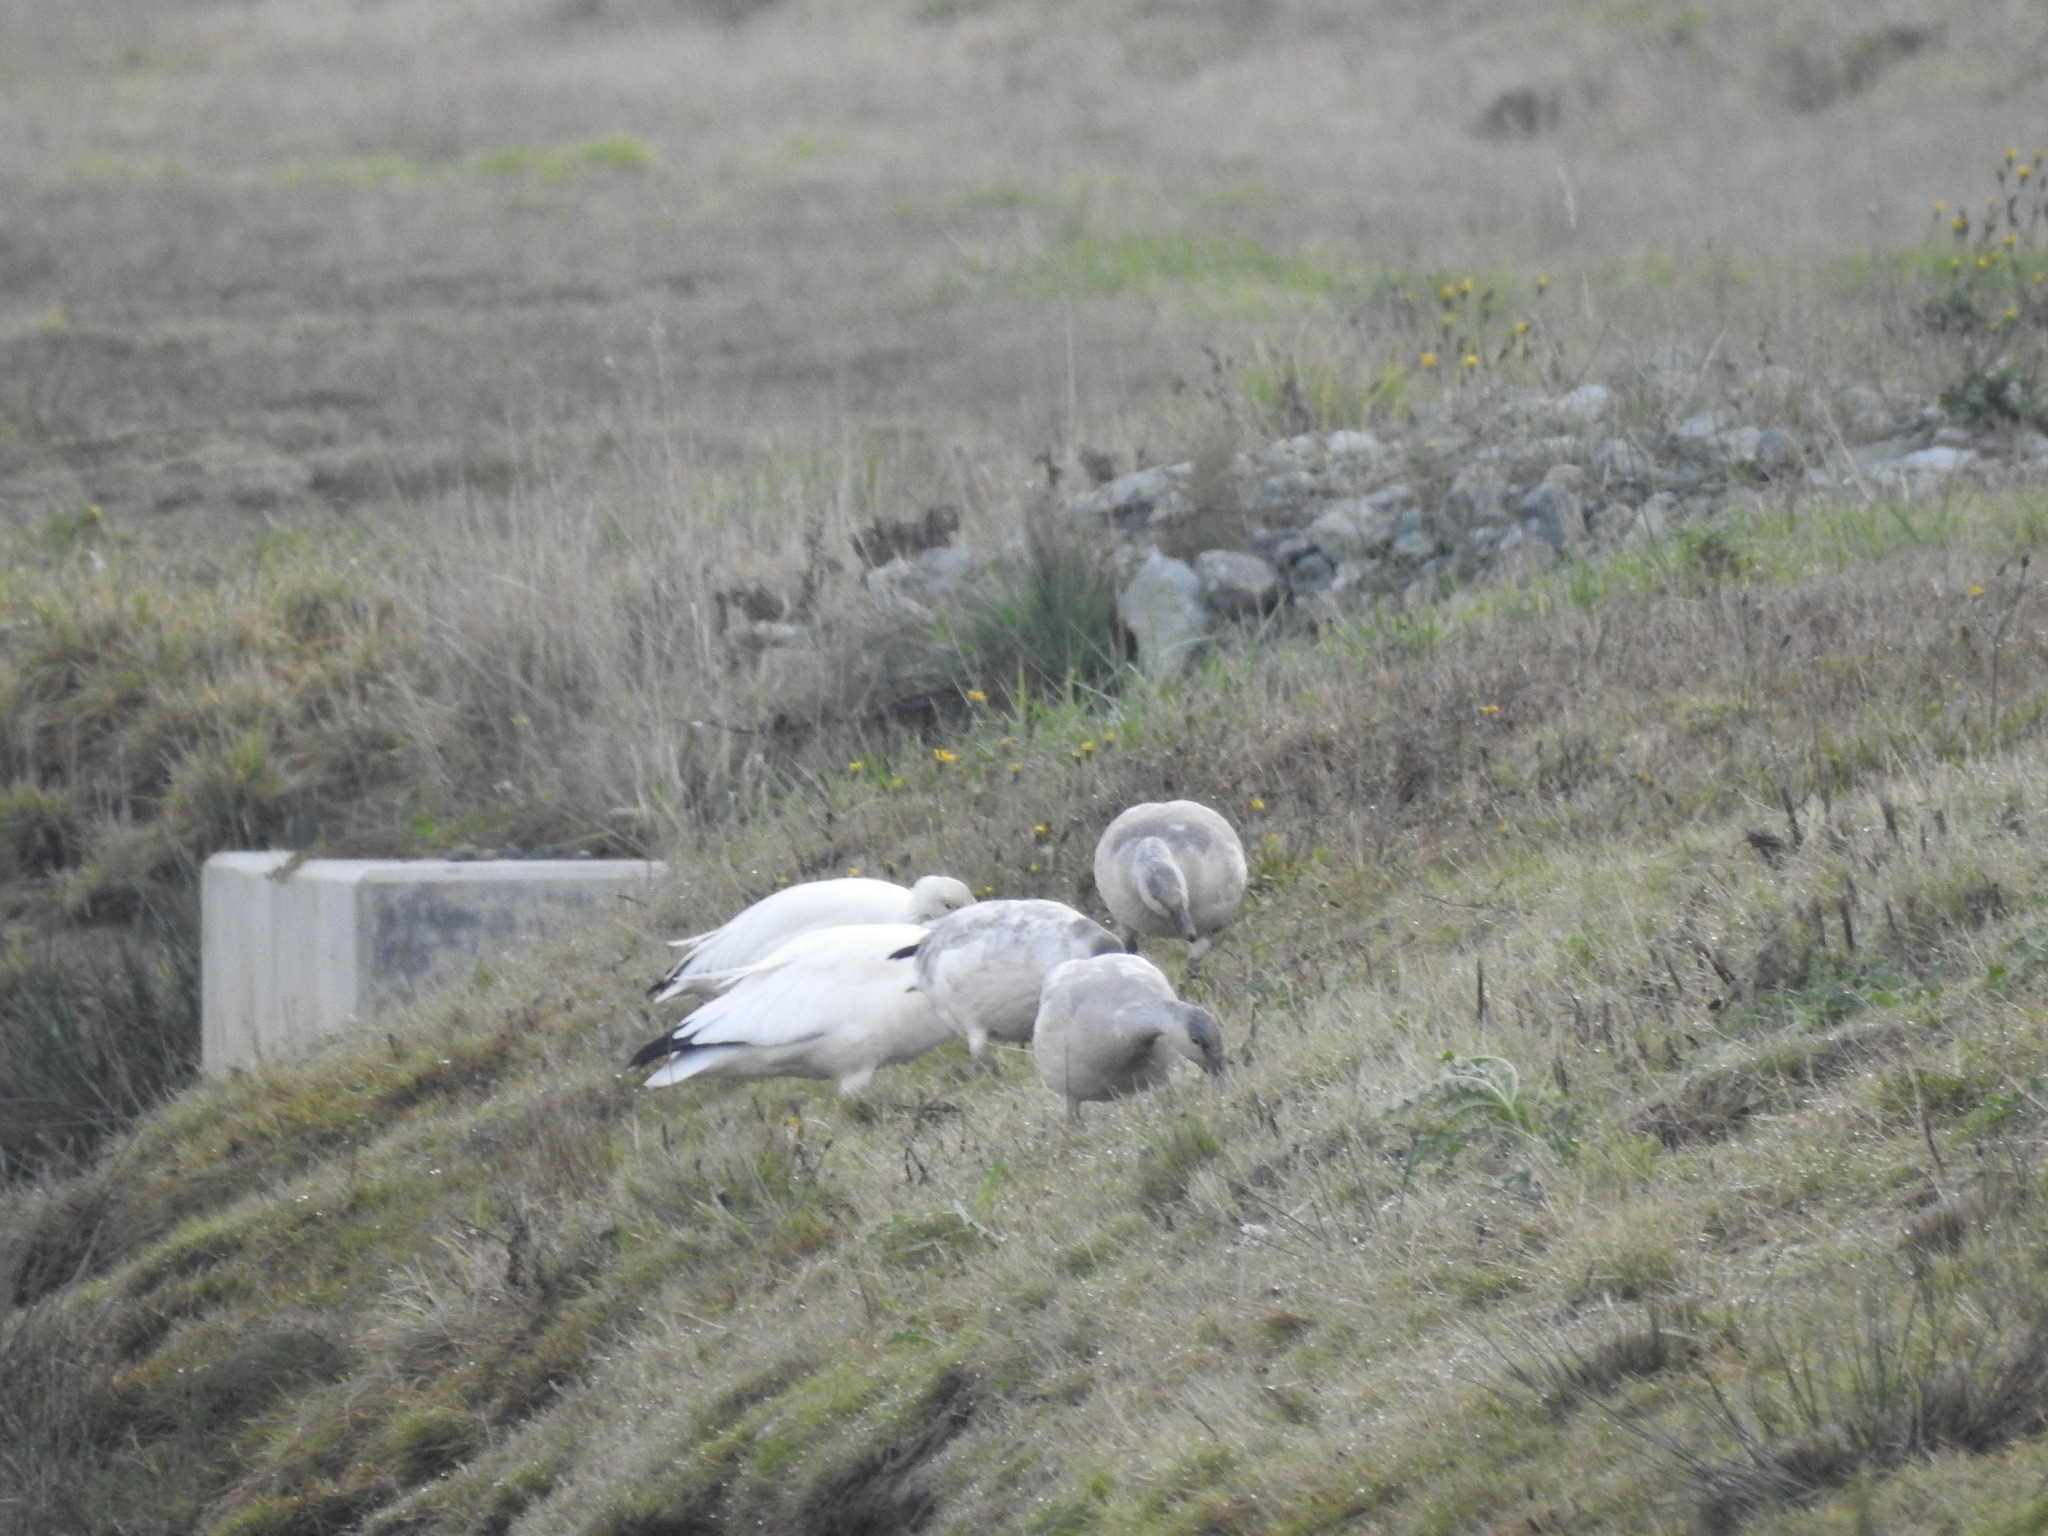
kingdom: Animalia
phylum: Chordata
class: Aves
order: Anseriformes
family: Anatidae
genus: Anser
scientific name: Anser caerulescens
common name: Snow goose
